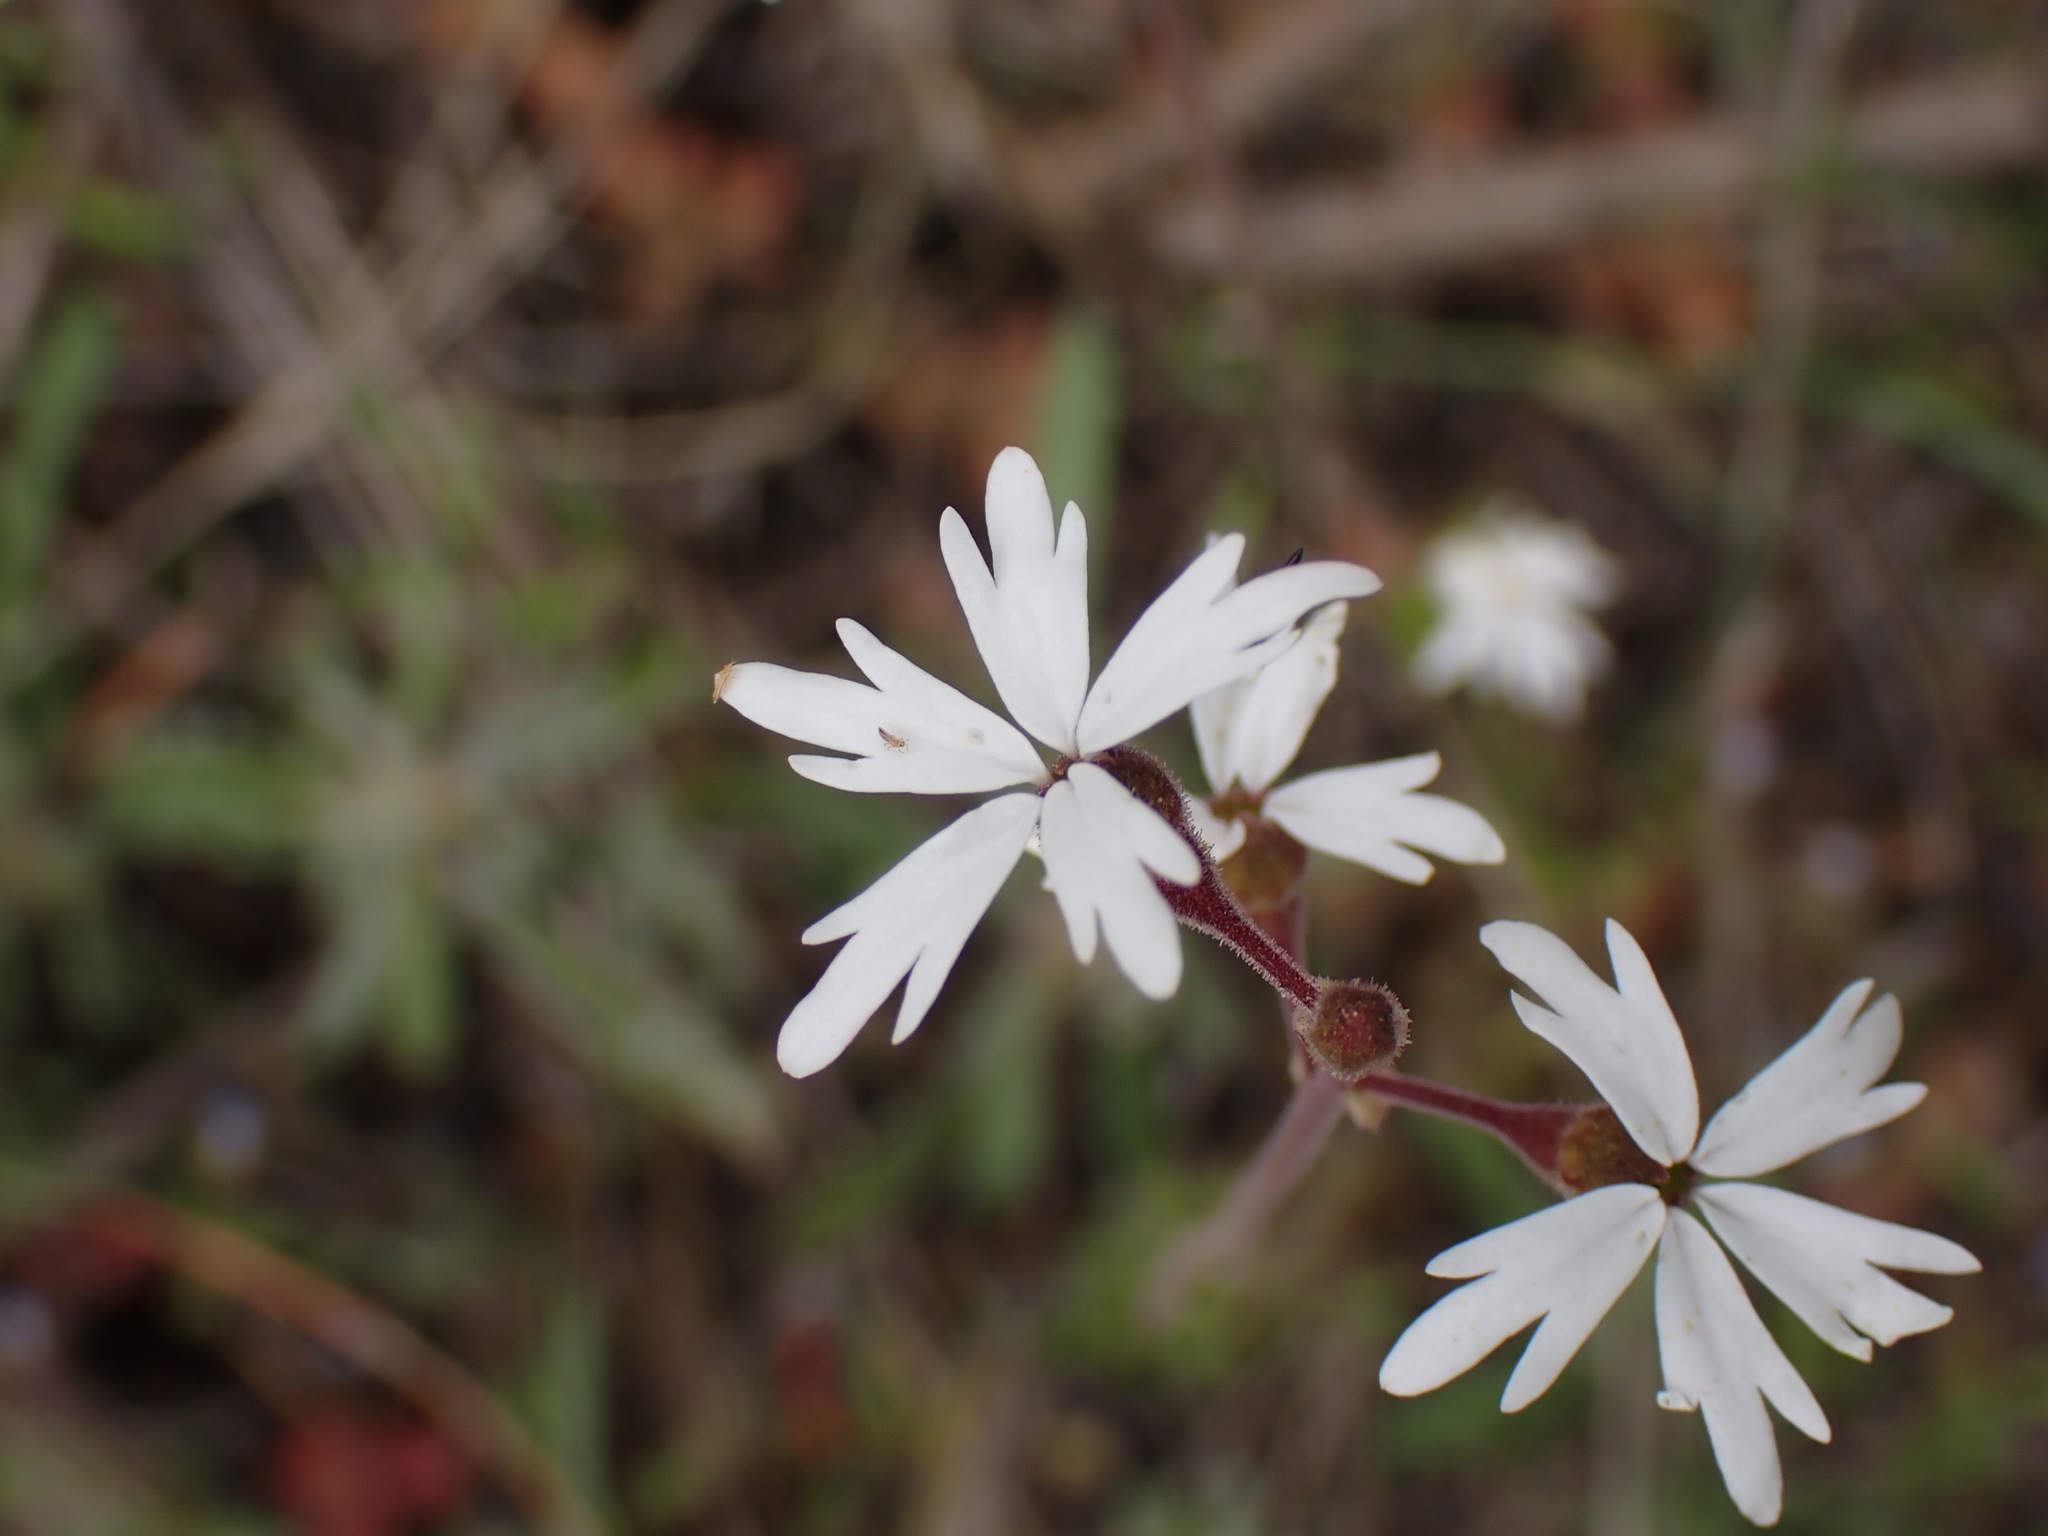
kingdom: Plantae
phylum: Tracheophyta
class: Magnoliopsida
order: Saxifragales
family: Saxifragaceae
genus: Lithophragma
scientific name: Lithophragma parviflorum
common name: Small-flowered fringe-cup
